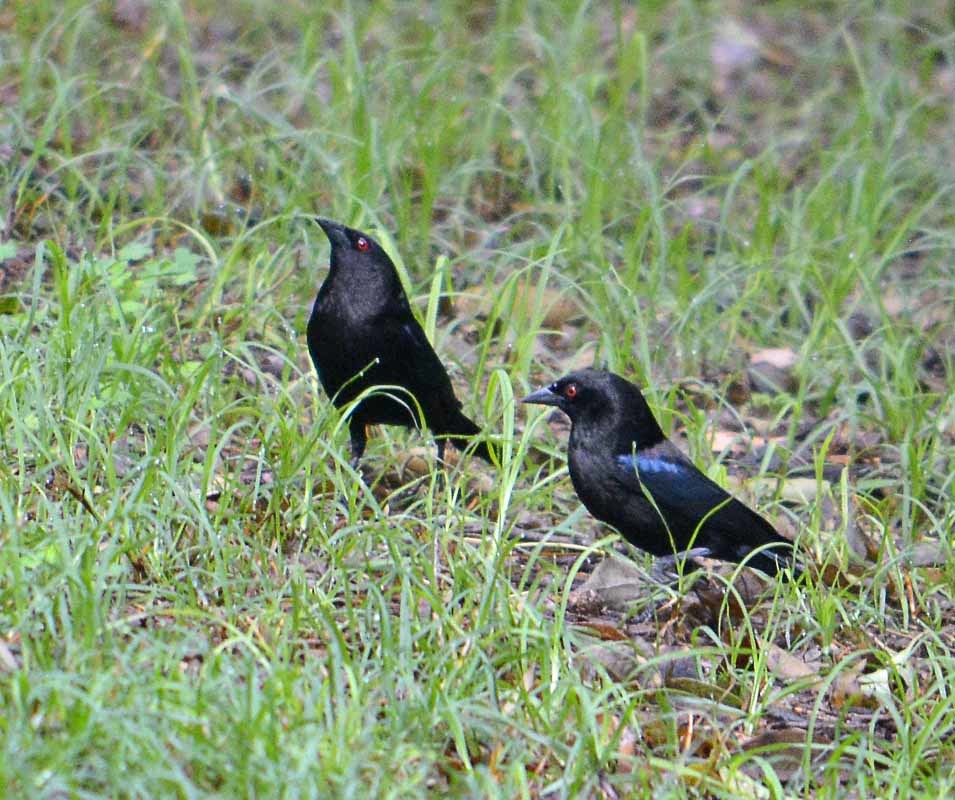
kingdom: Animalia
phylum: Chordata
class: Aves
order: Passeriformes
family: Icteridae
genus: Molothrus
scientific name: Molothrus aeneus
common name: Bronzed cowbird
